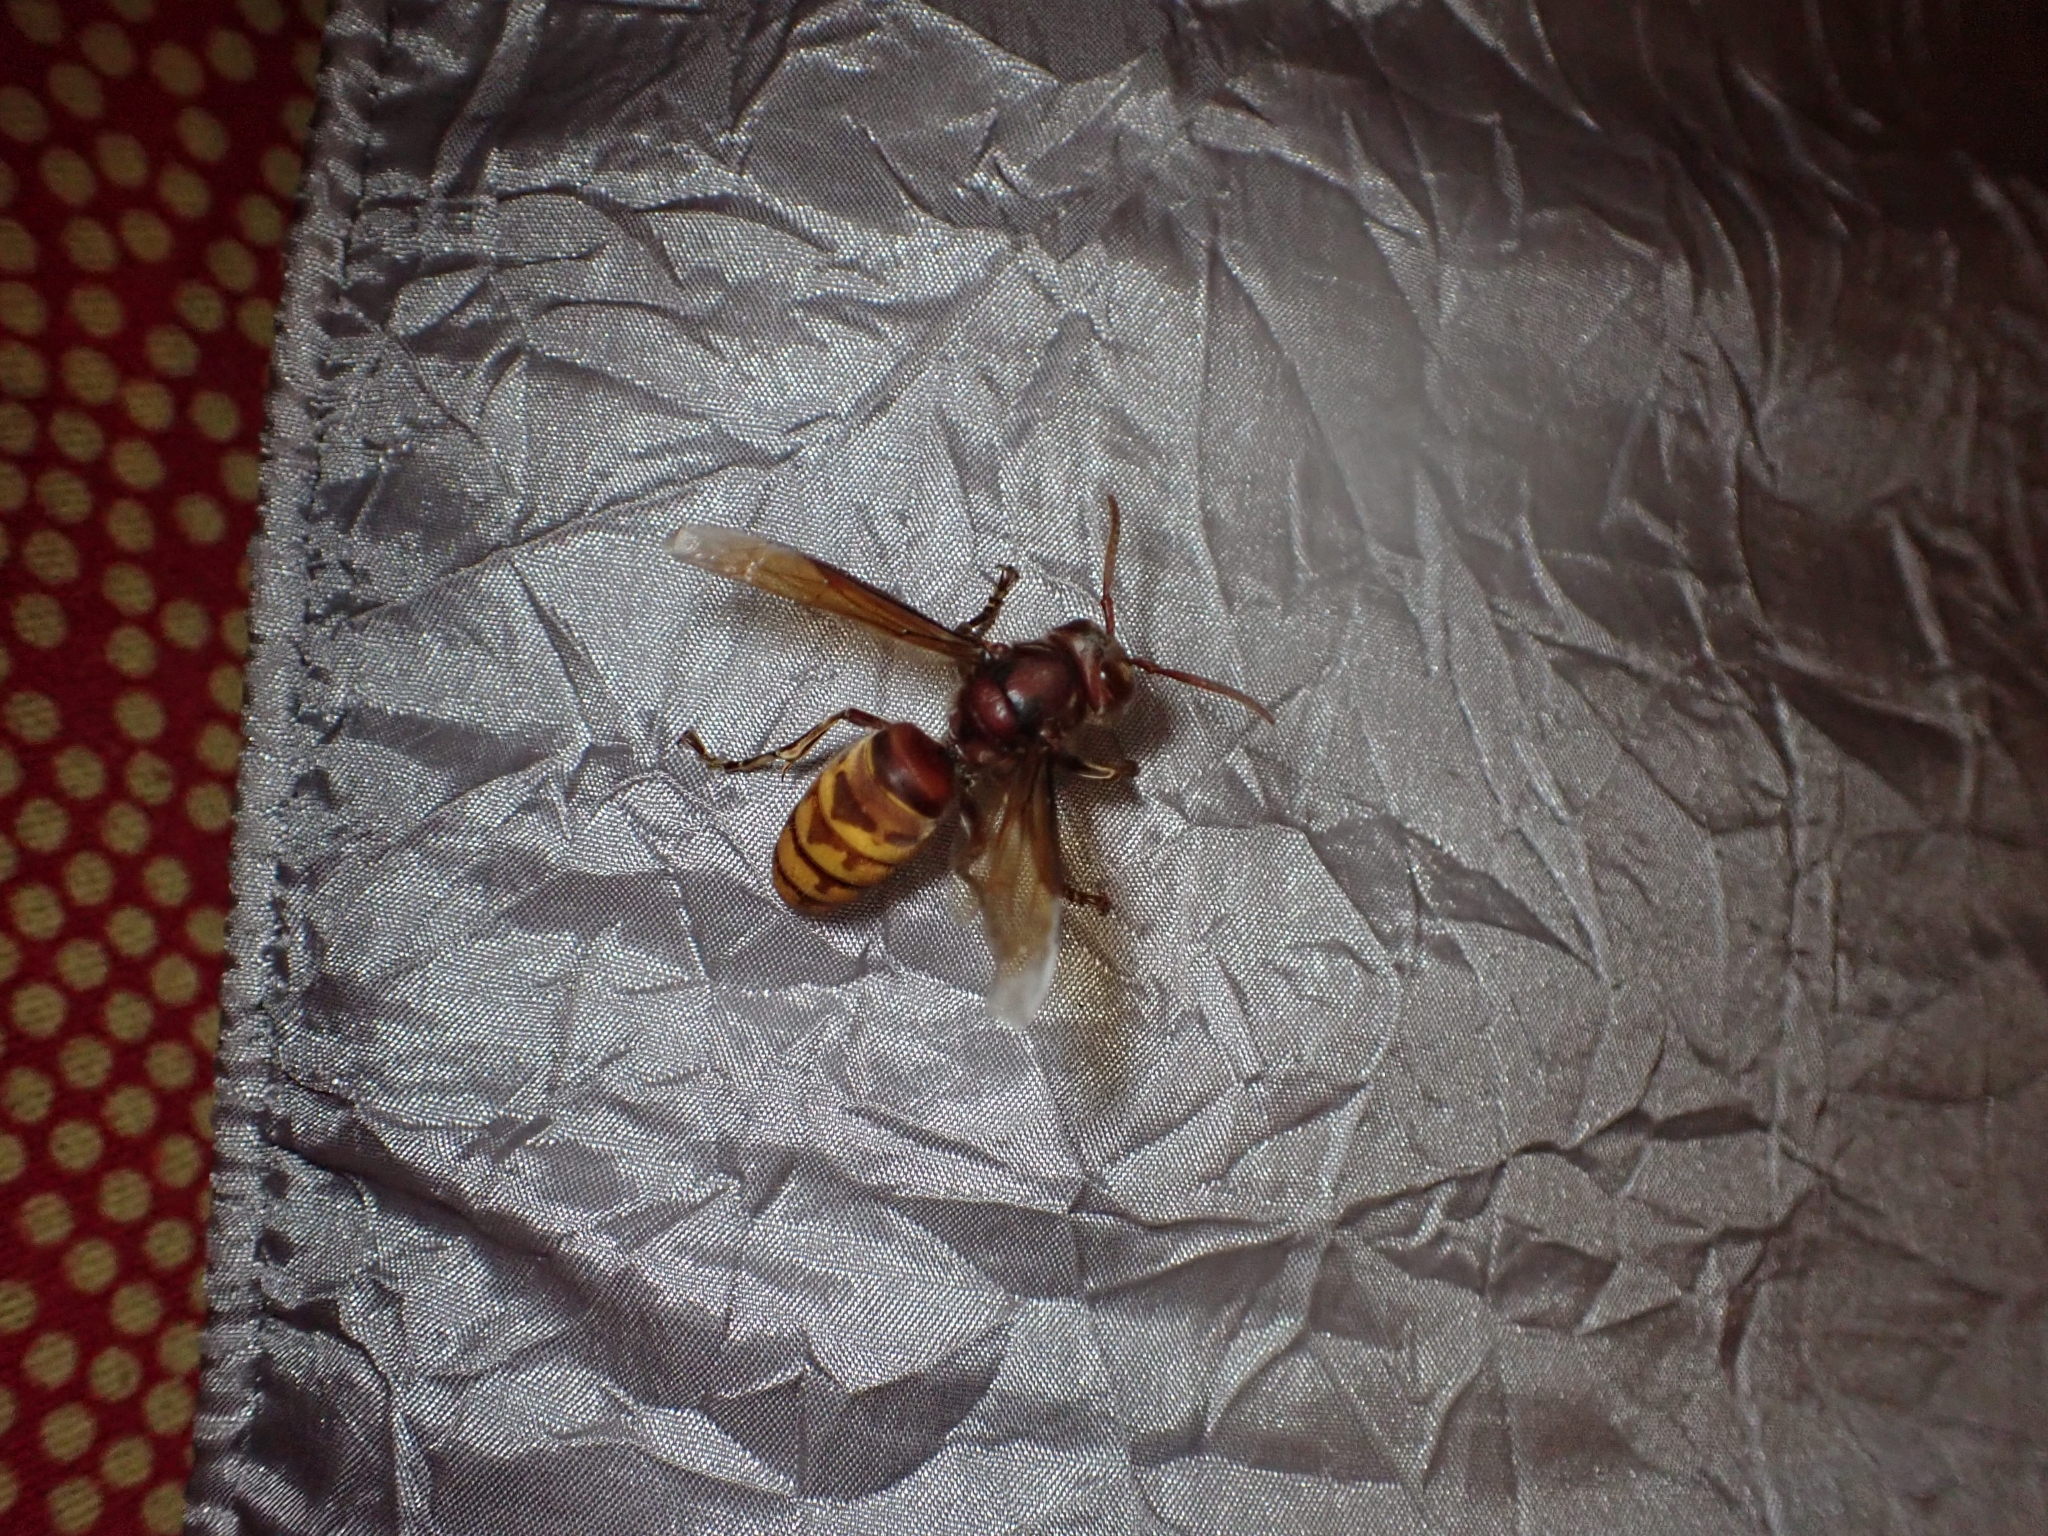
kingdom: Animalia
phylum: Arthropoda
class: Insecta
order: Hymenoptera
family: Vespidae
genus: Vespa
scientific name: Vespa crabro
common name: Hornet
